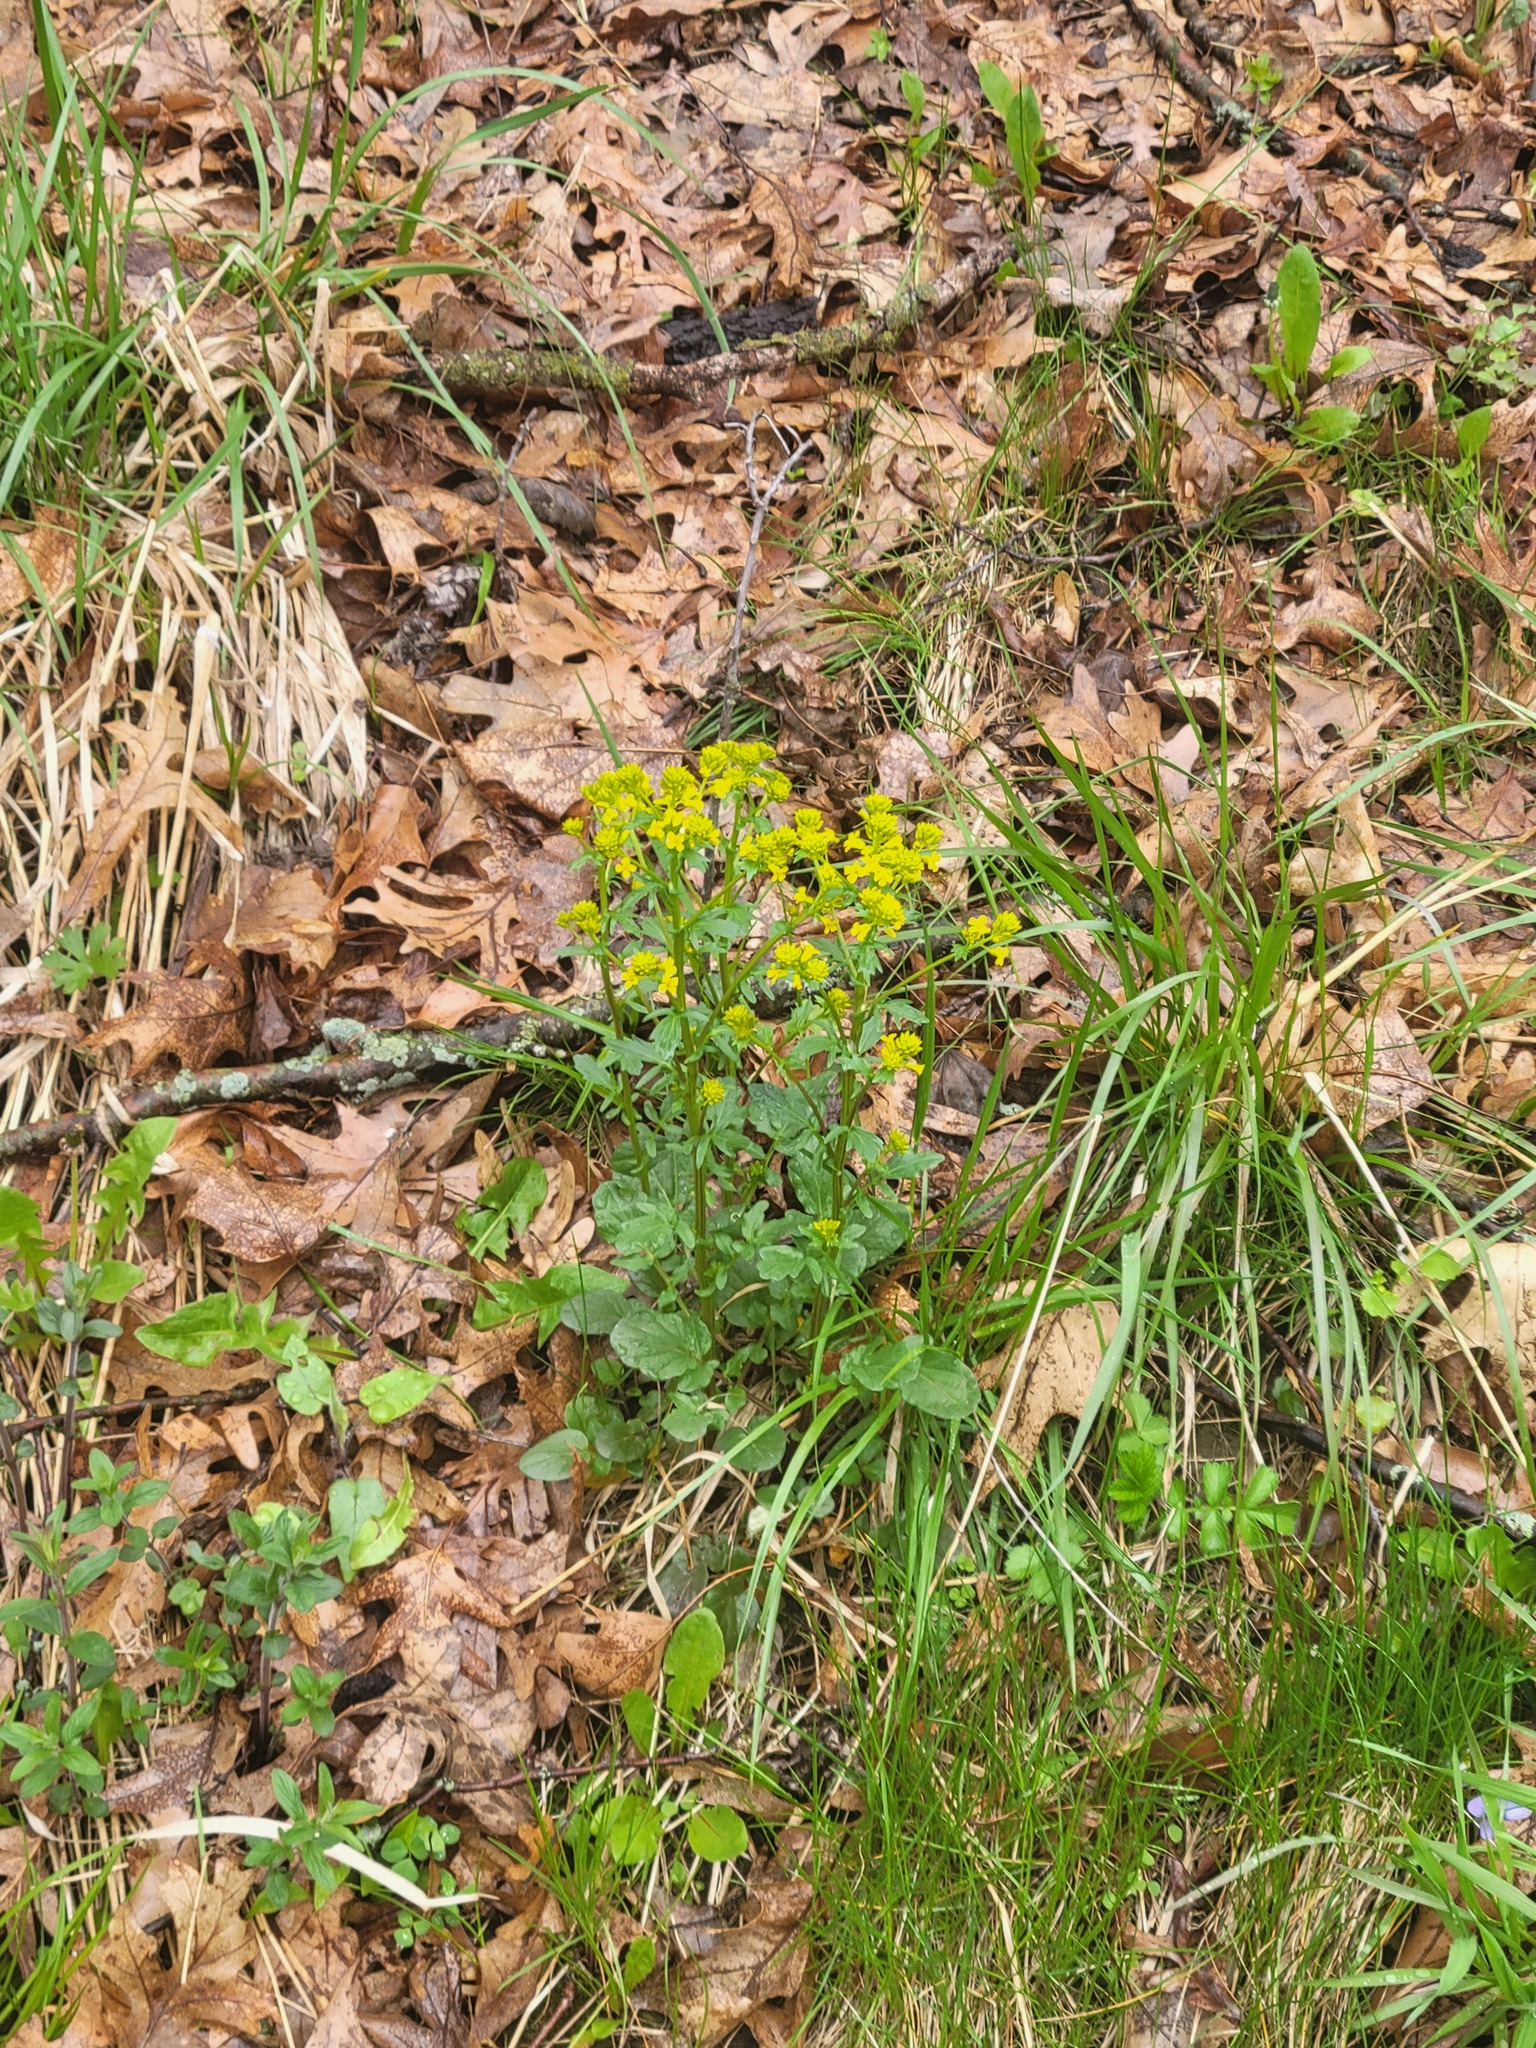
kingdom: Plantae
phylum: Tracheophyta
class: Magnoliopsida
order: Brassicales
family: Brassicaceae
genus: Barbarea
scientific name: Barbarea vulgaris
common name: Cressy-greens
